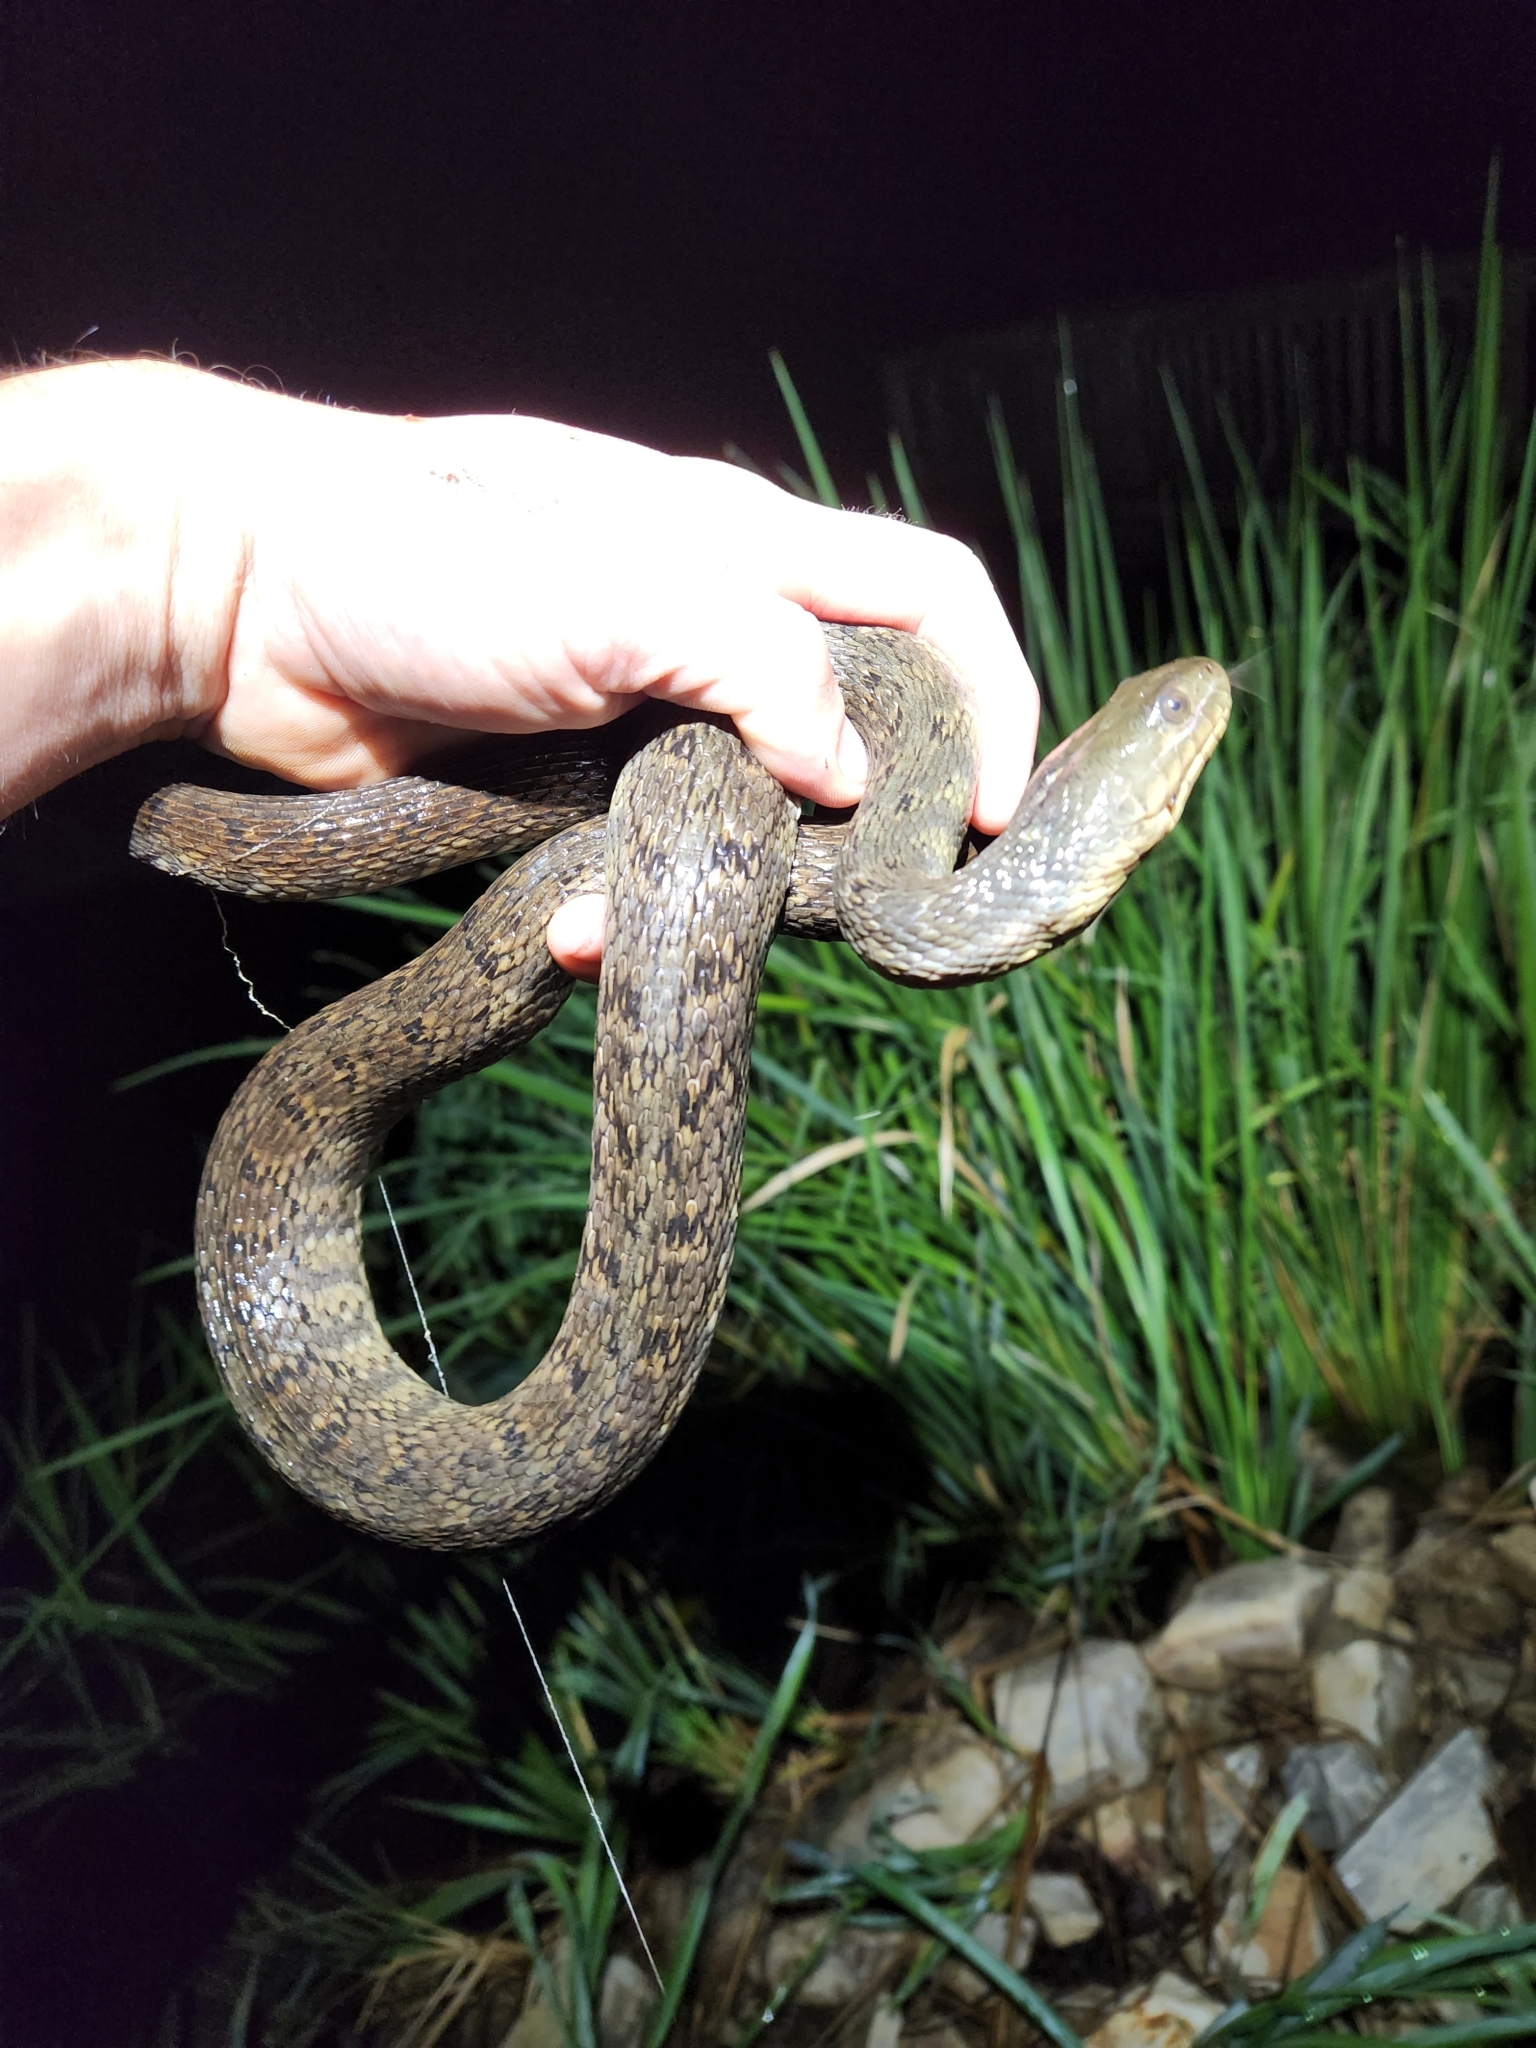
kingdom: Animalia
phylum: Chordata
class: Squamata
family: Colubridae
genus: Nerodia
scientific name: Nerodia cyclopion
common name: Mississippi green water snake
